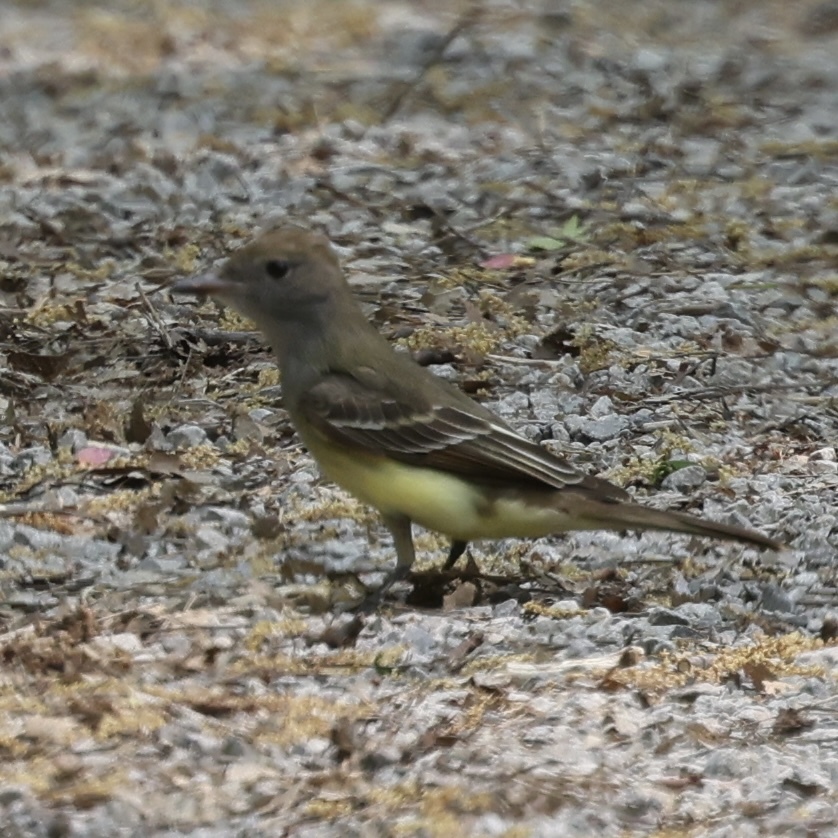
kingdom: Animalia
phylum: Chordata
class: Aves
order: Passeriformes
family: Tyrannidae
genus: Myiarchus
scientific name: Myiarchus crinitus
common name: Great crested flycatcher
